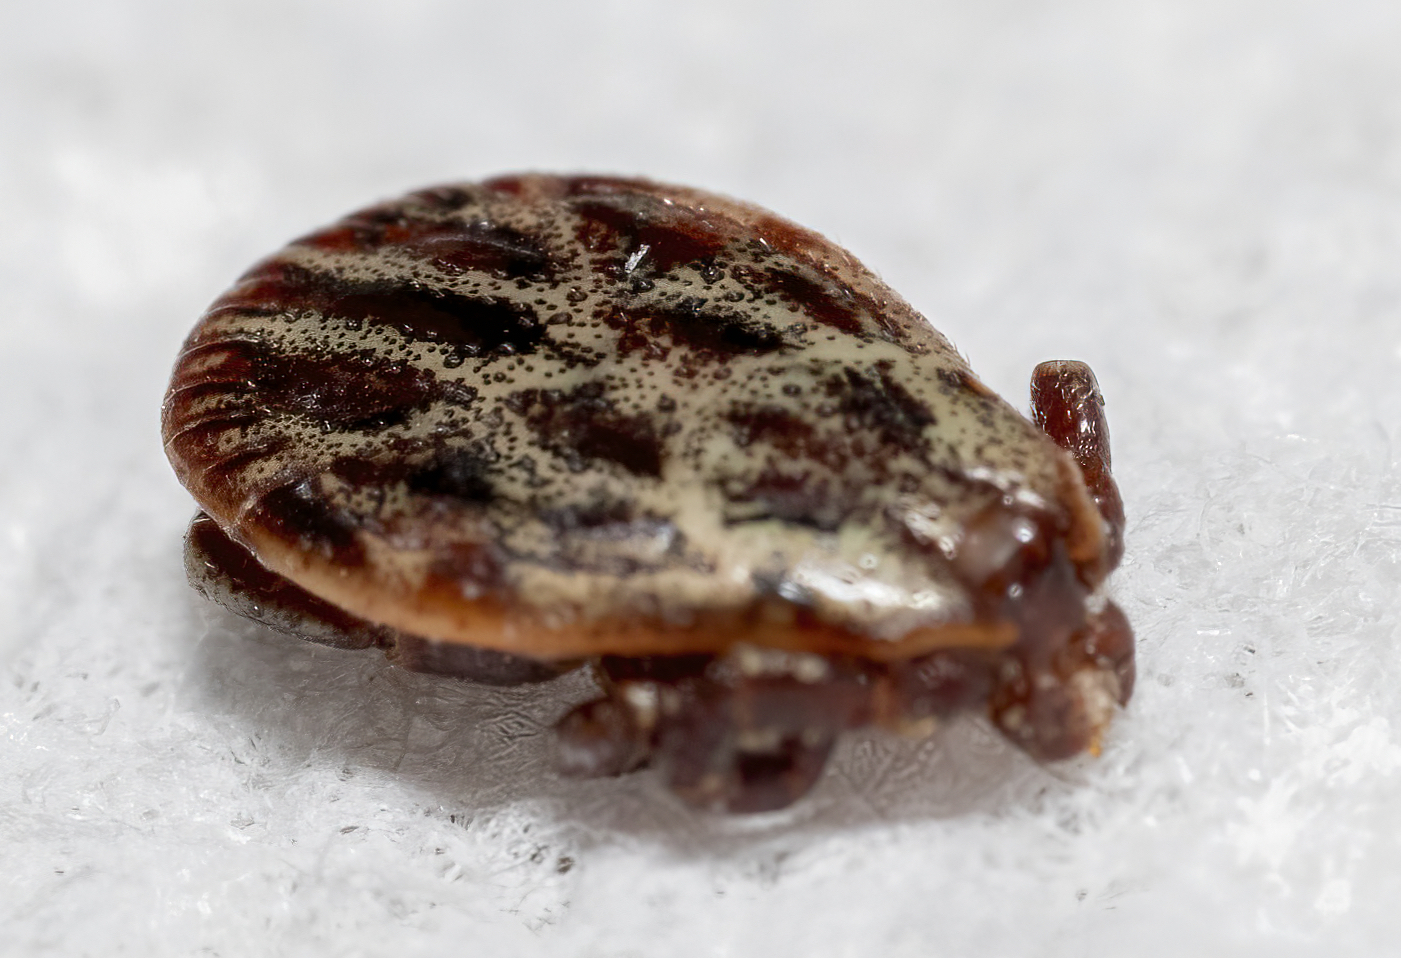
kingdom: Animalia
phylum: Arthropoda
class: Arachnida
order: Ixodida
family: Ixodidae
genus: Dermacentor
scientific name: Dermacentor reticulatus
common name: Ornate cow tick
